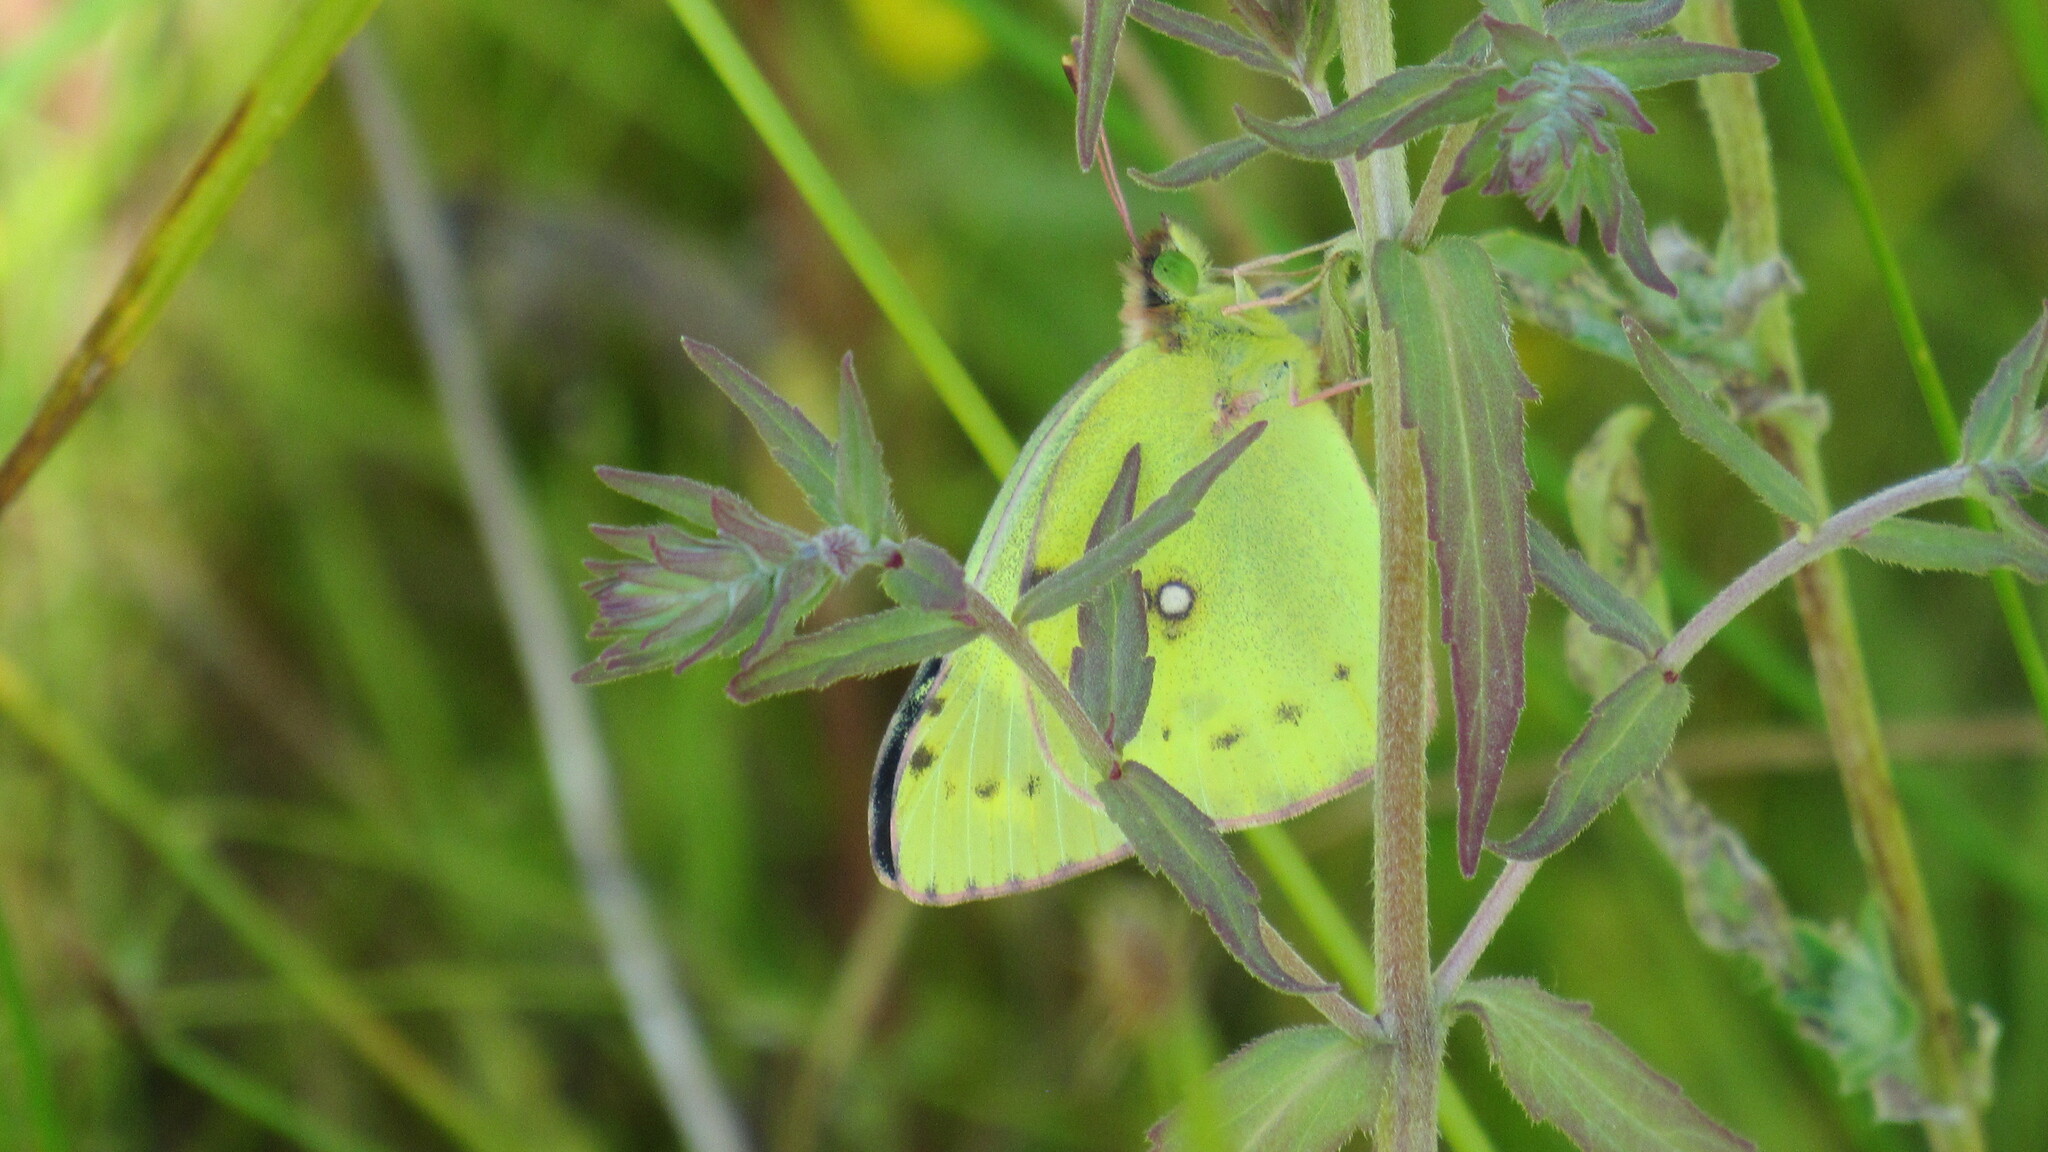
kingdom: Animalia
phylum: Arthropoda
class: Insecta
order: Lepidoptera
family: Pieridae
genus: Colias
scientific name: Colias hyale
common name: Pale clouded yellow
